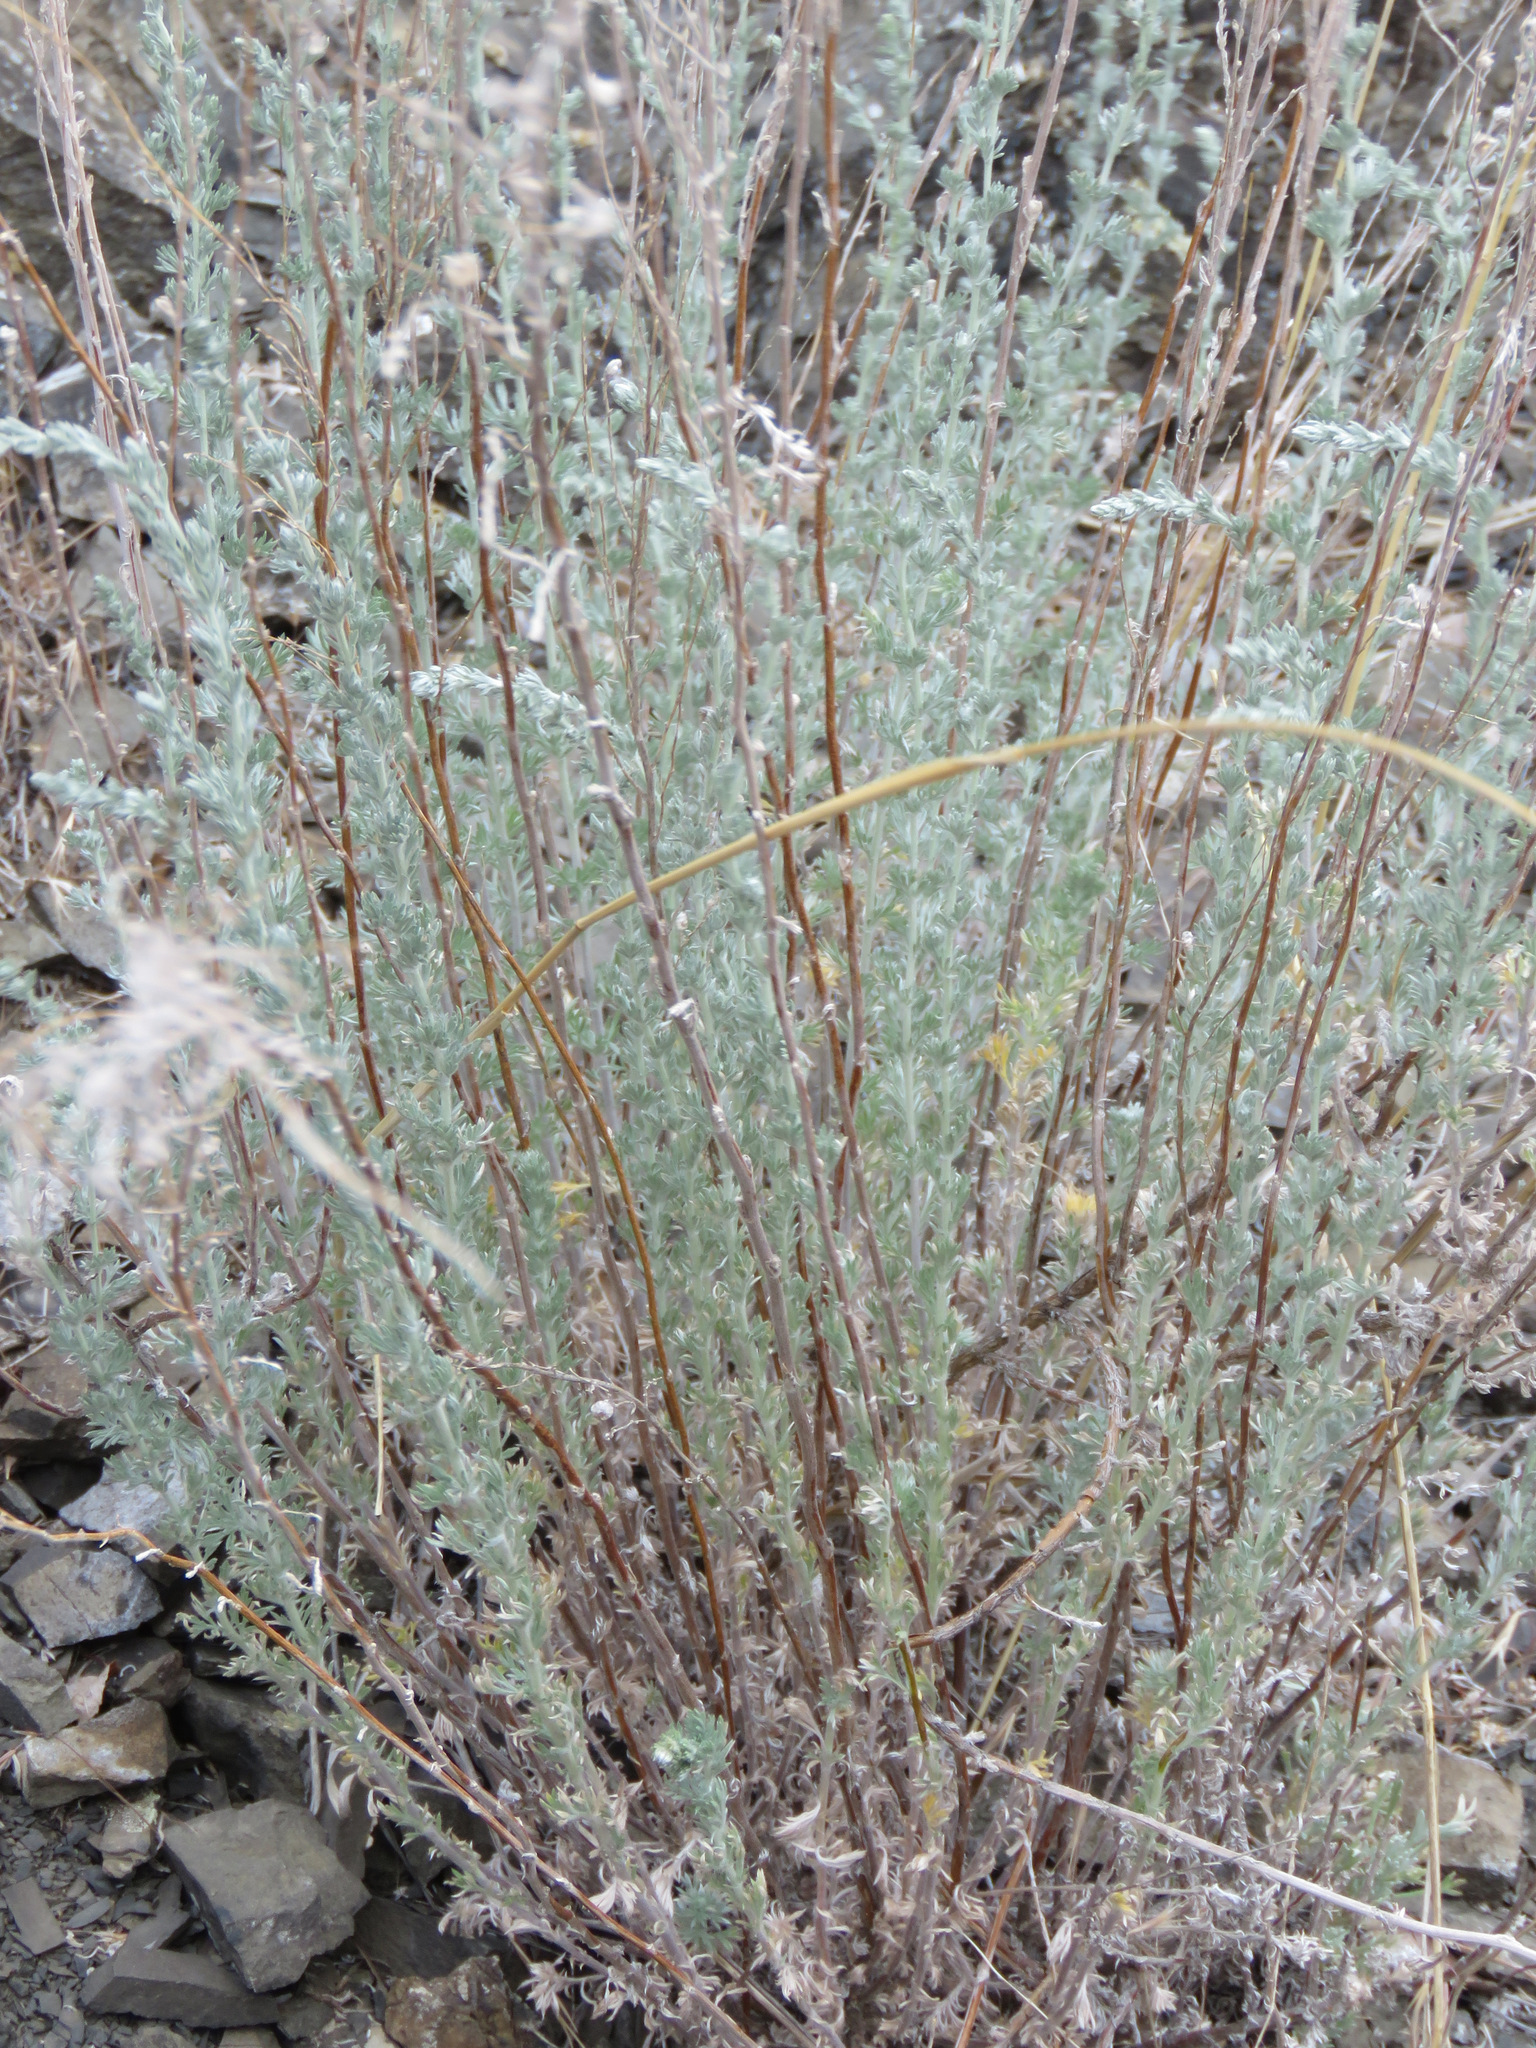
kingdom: Plantae
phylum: Tracheophyta
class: Magnoliopsida
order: Asterales
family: Asteraceae
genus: Artemisia
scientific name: Artemisia frigida
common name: Prairie sagewort
